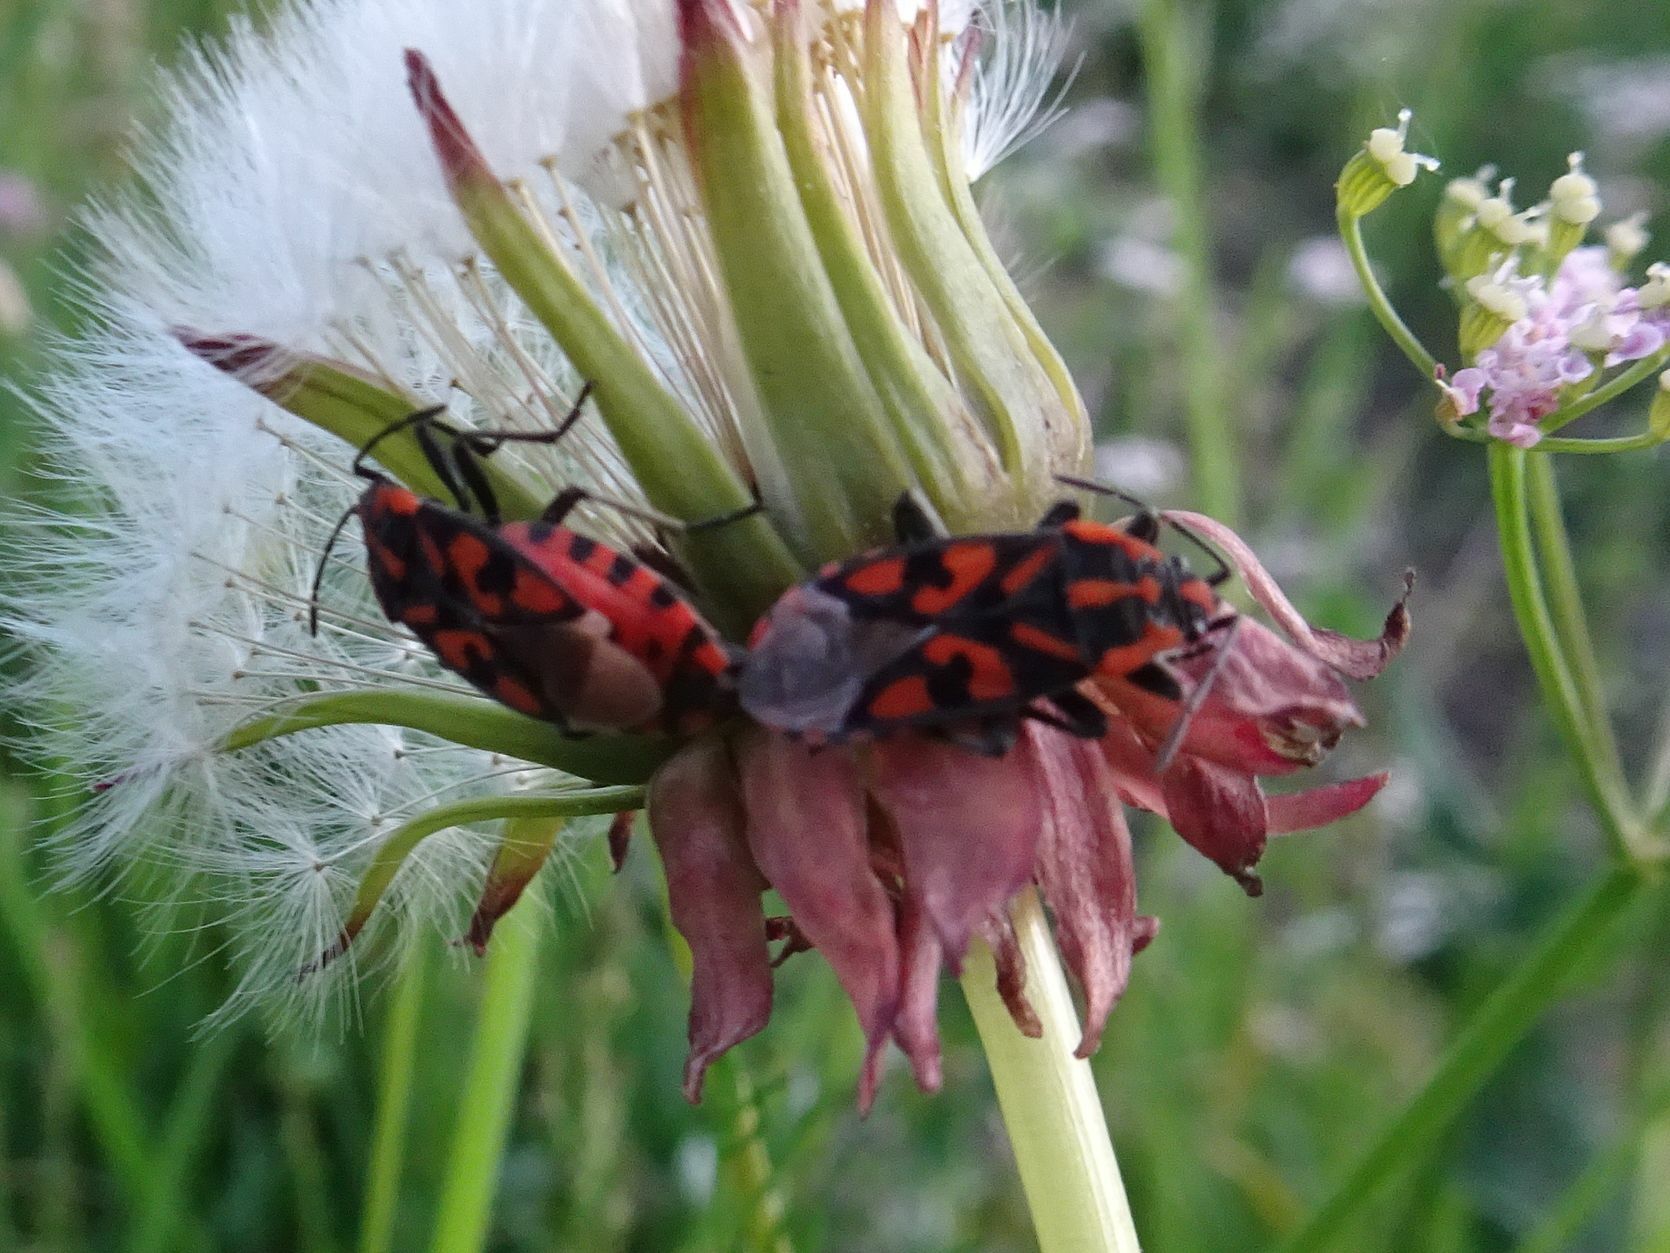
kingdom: Animalia
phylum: Arthropoda
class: Insecta
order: Hemiptera
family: Lygaeidae
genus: Spilostethus
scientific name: Spilostethus saxatilis
